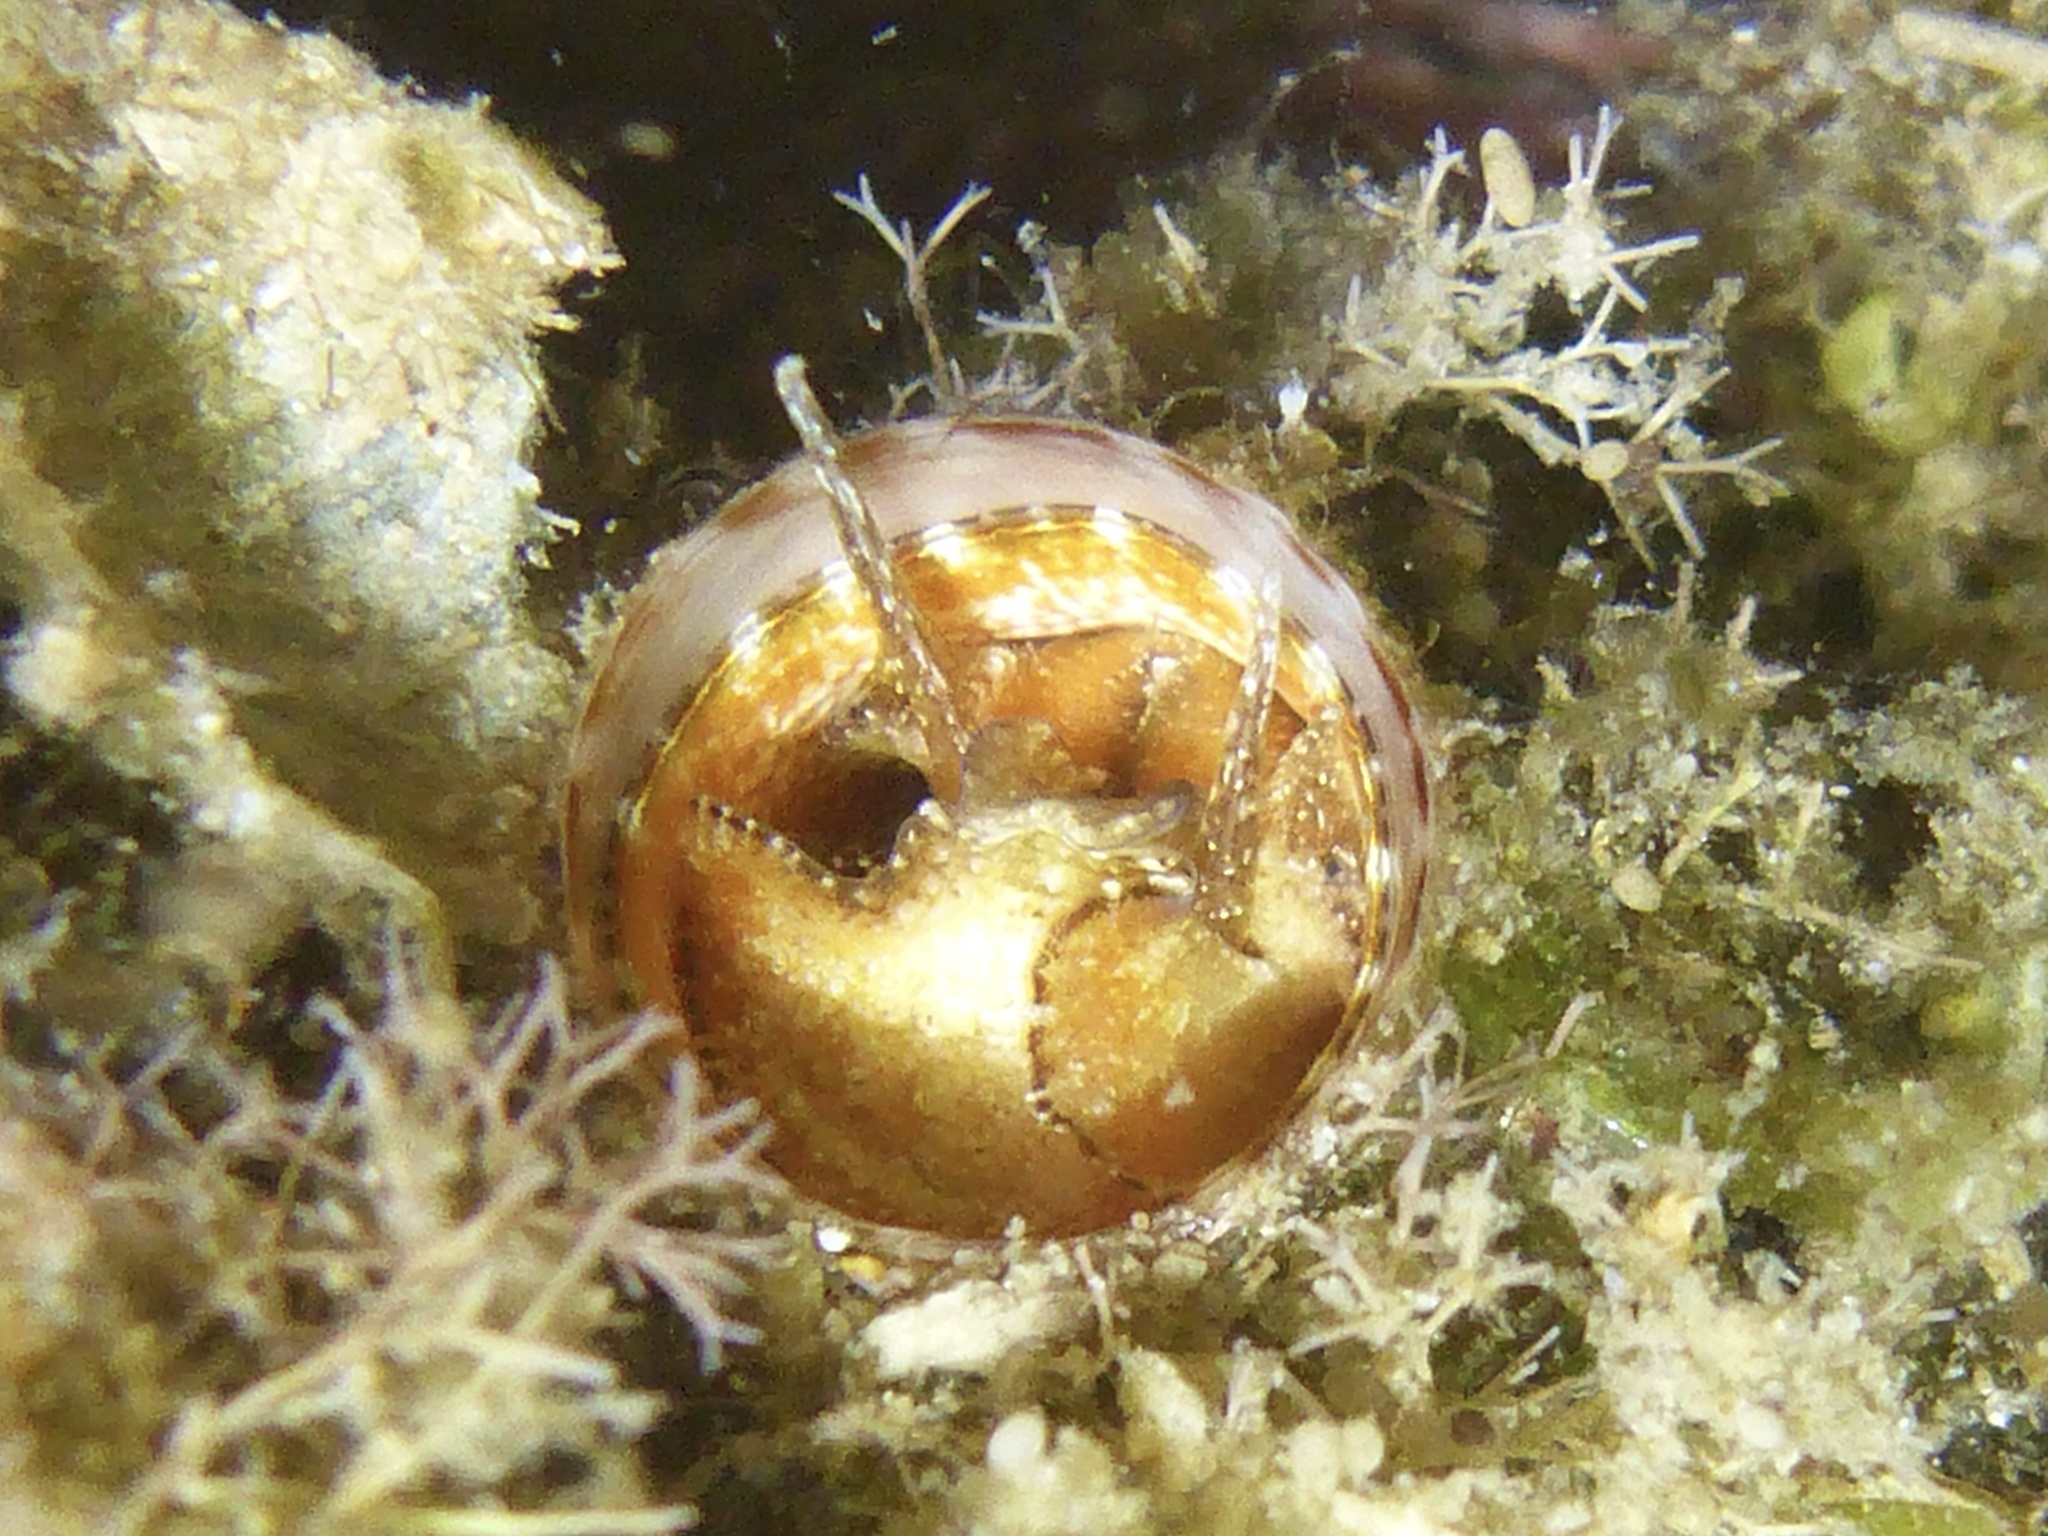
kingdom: Animalia
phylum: Mollusca
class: Gastropoda
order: Littorinimorpha
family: Vermetidae
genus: Thylacodes
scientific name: Thylacodes variabilis
